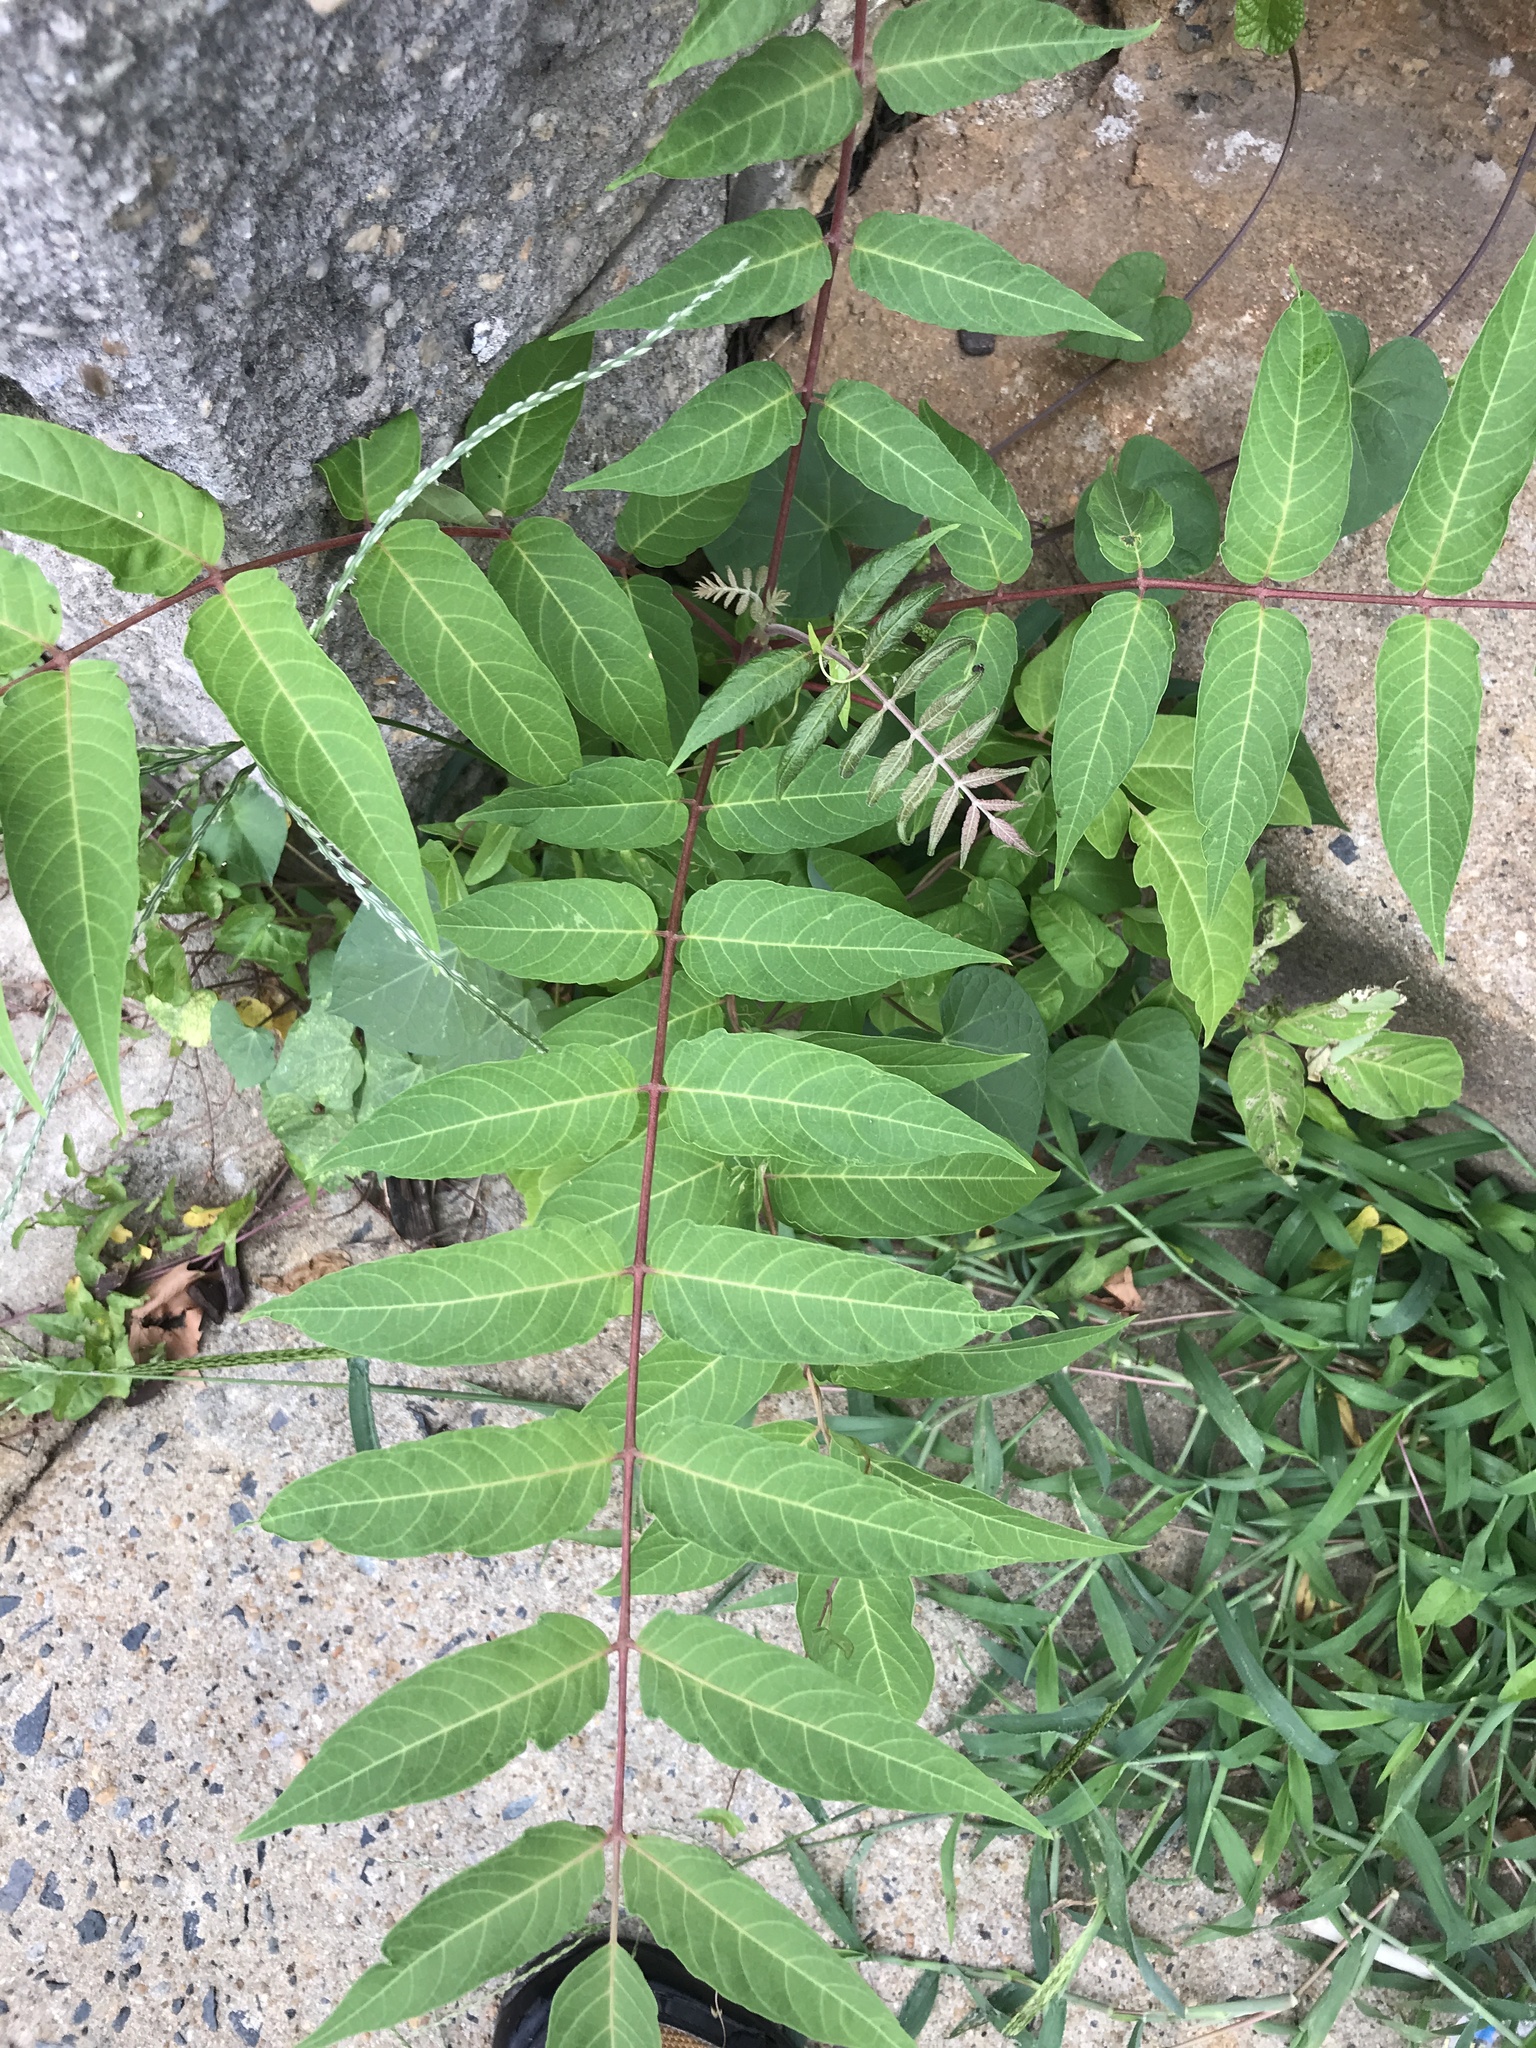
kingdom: Plantae
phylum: Tracheophyta
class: Magnoliopsida
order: Sapindales
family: Simaroubaceae
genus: Ailanthus
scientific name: Ailanthus altissima
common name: Tree-of-heaven
